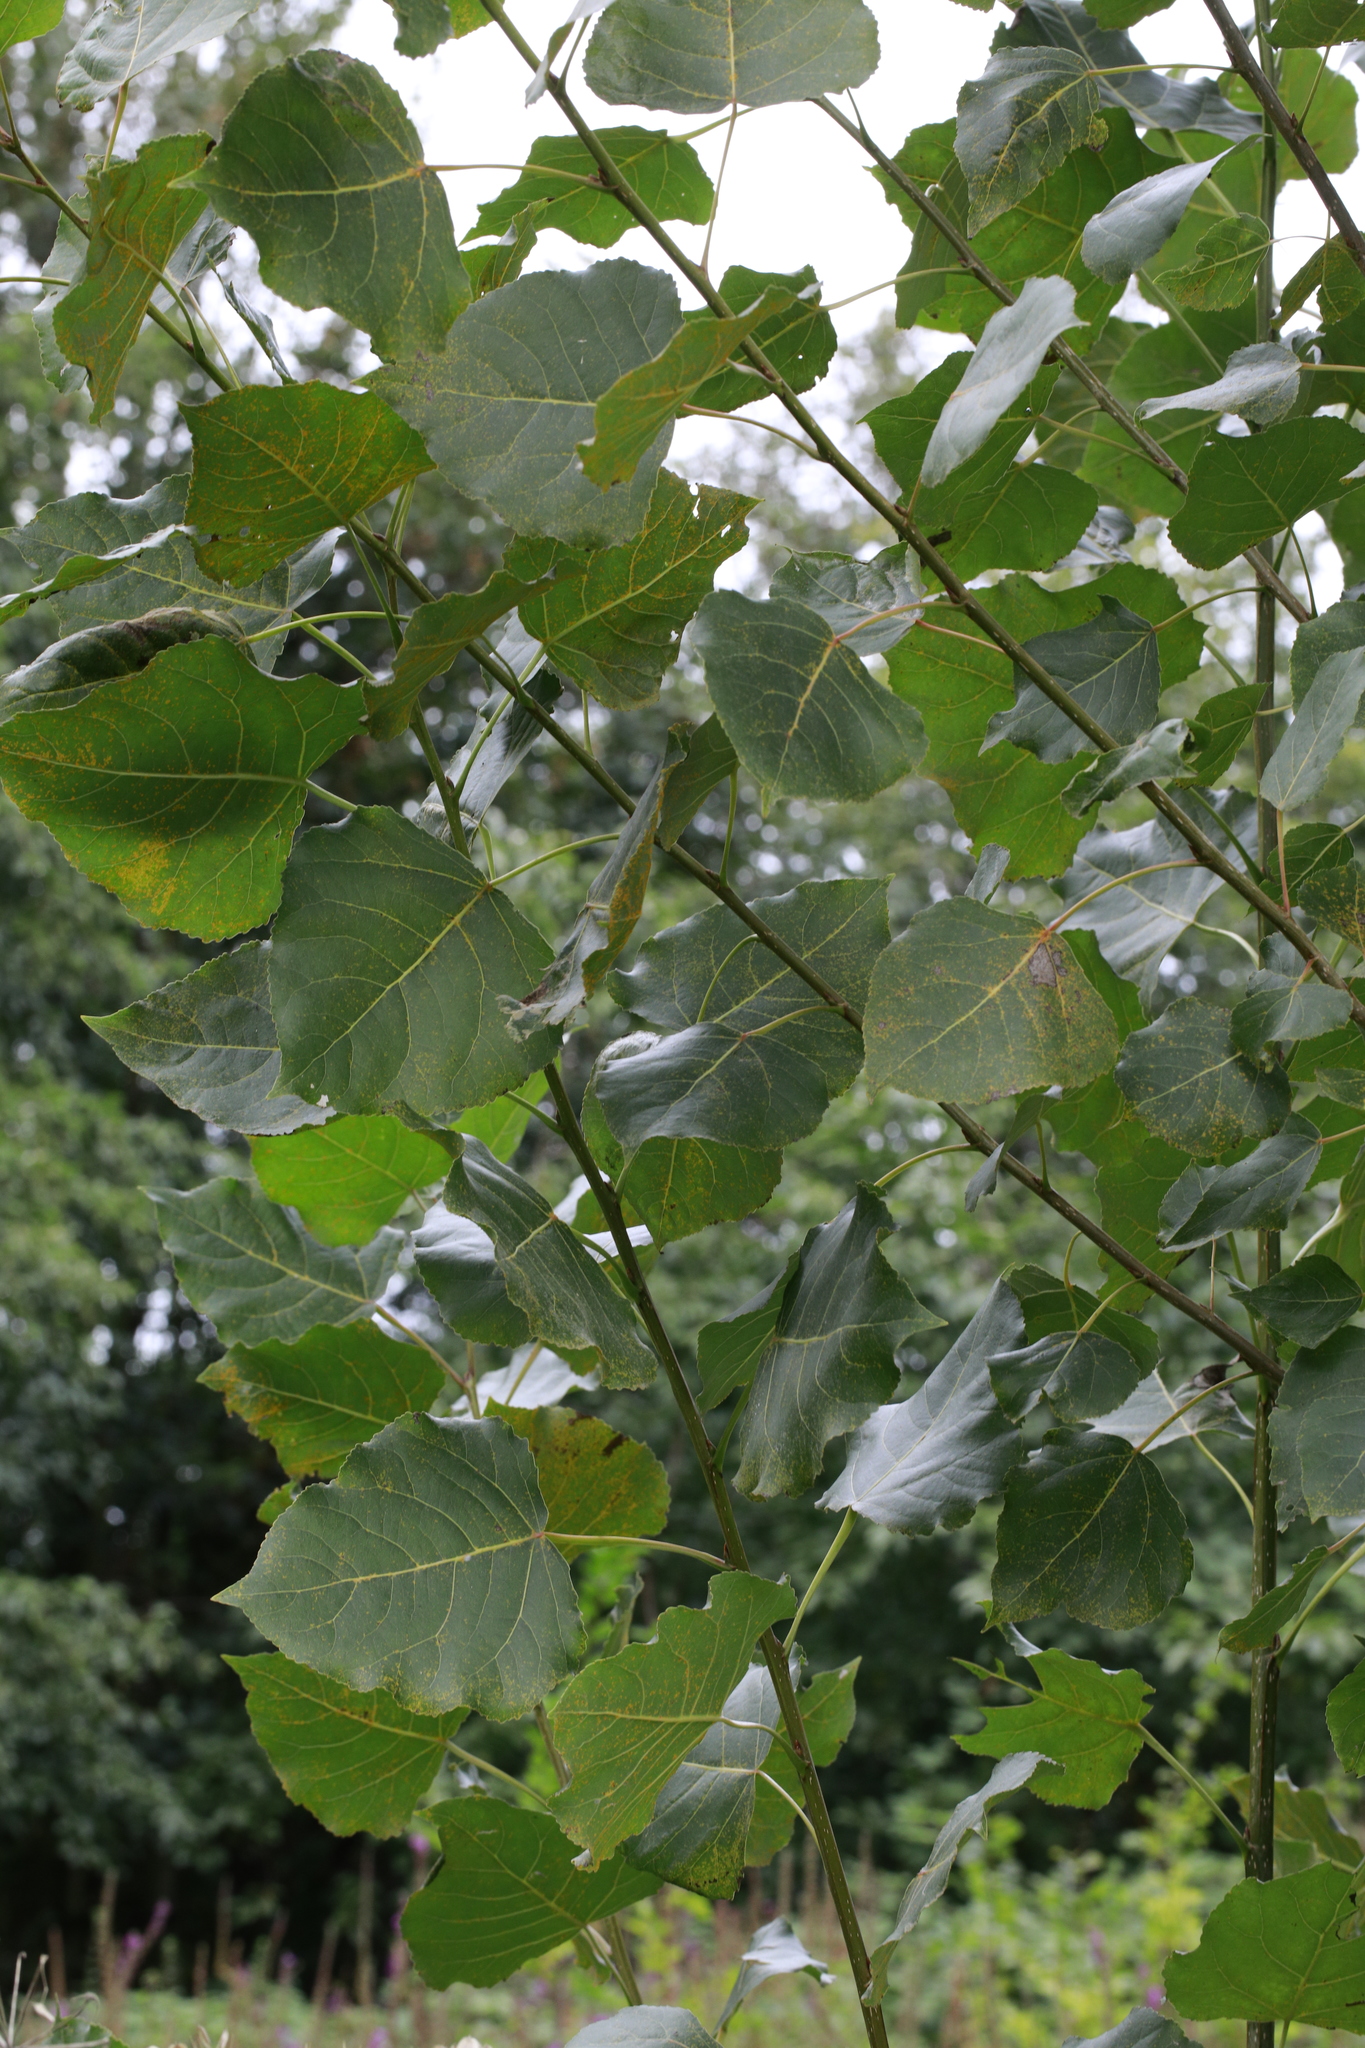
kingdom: Plantae
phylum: Tracheophyta
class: Magnoliopsida
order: Malpighiales
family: Salicaceae
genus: Populus
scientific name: Populus nigra
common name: Black poplar
